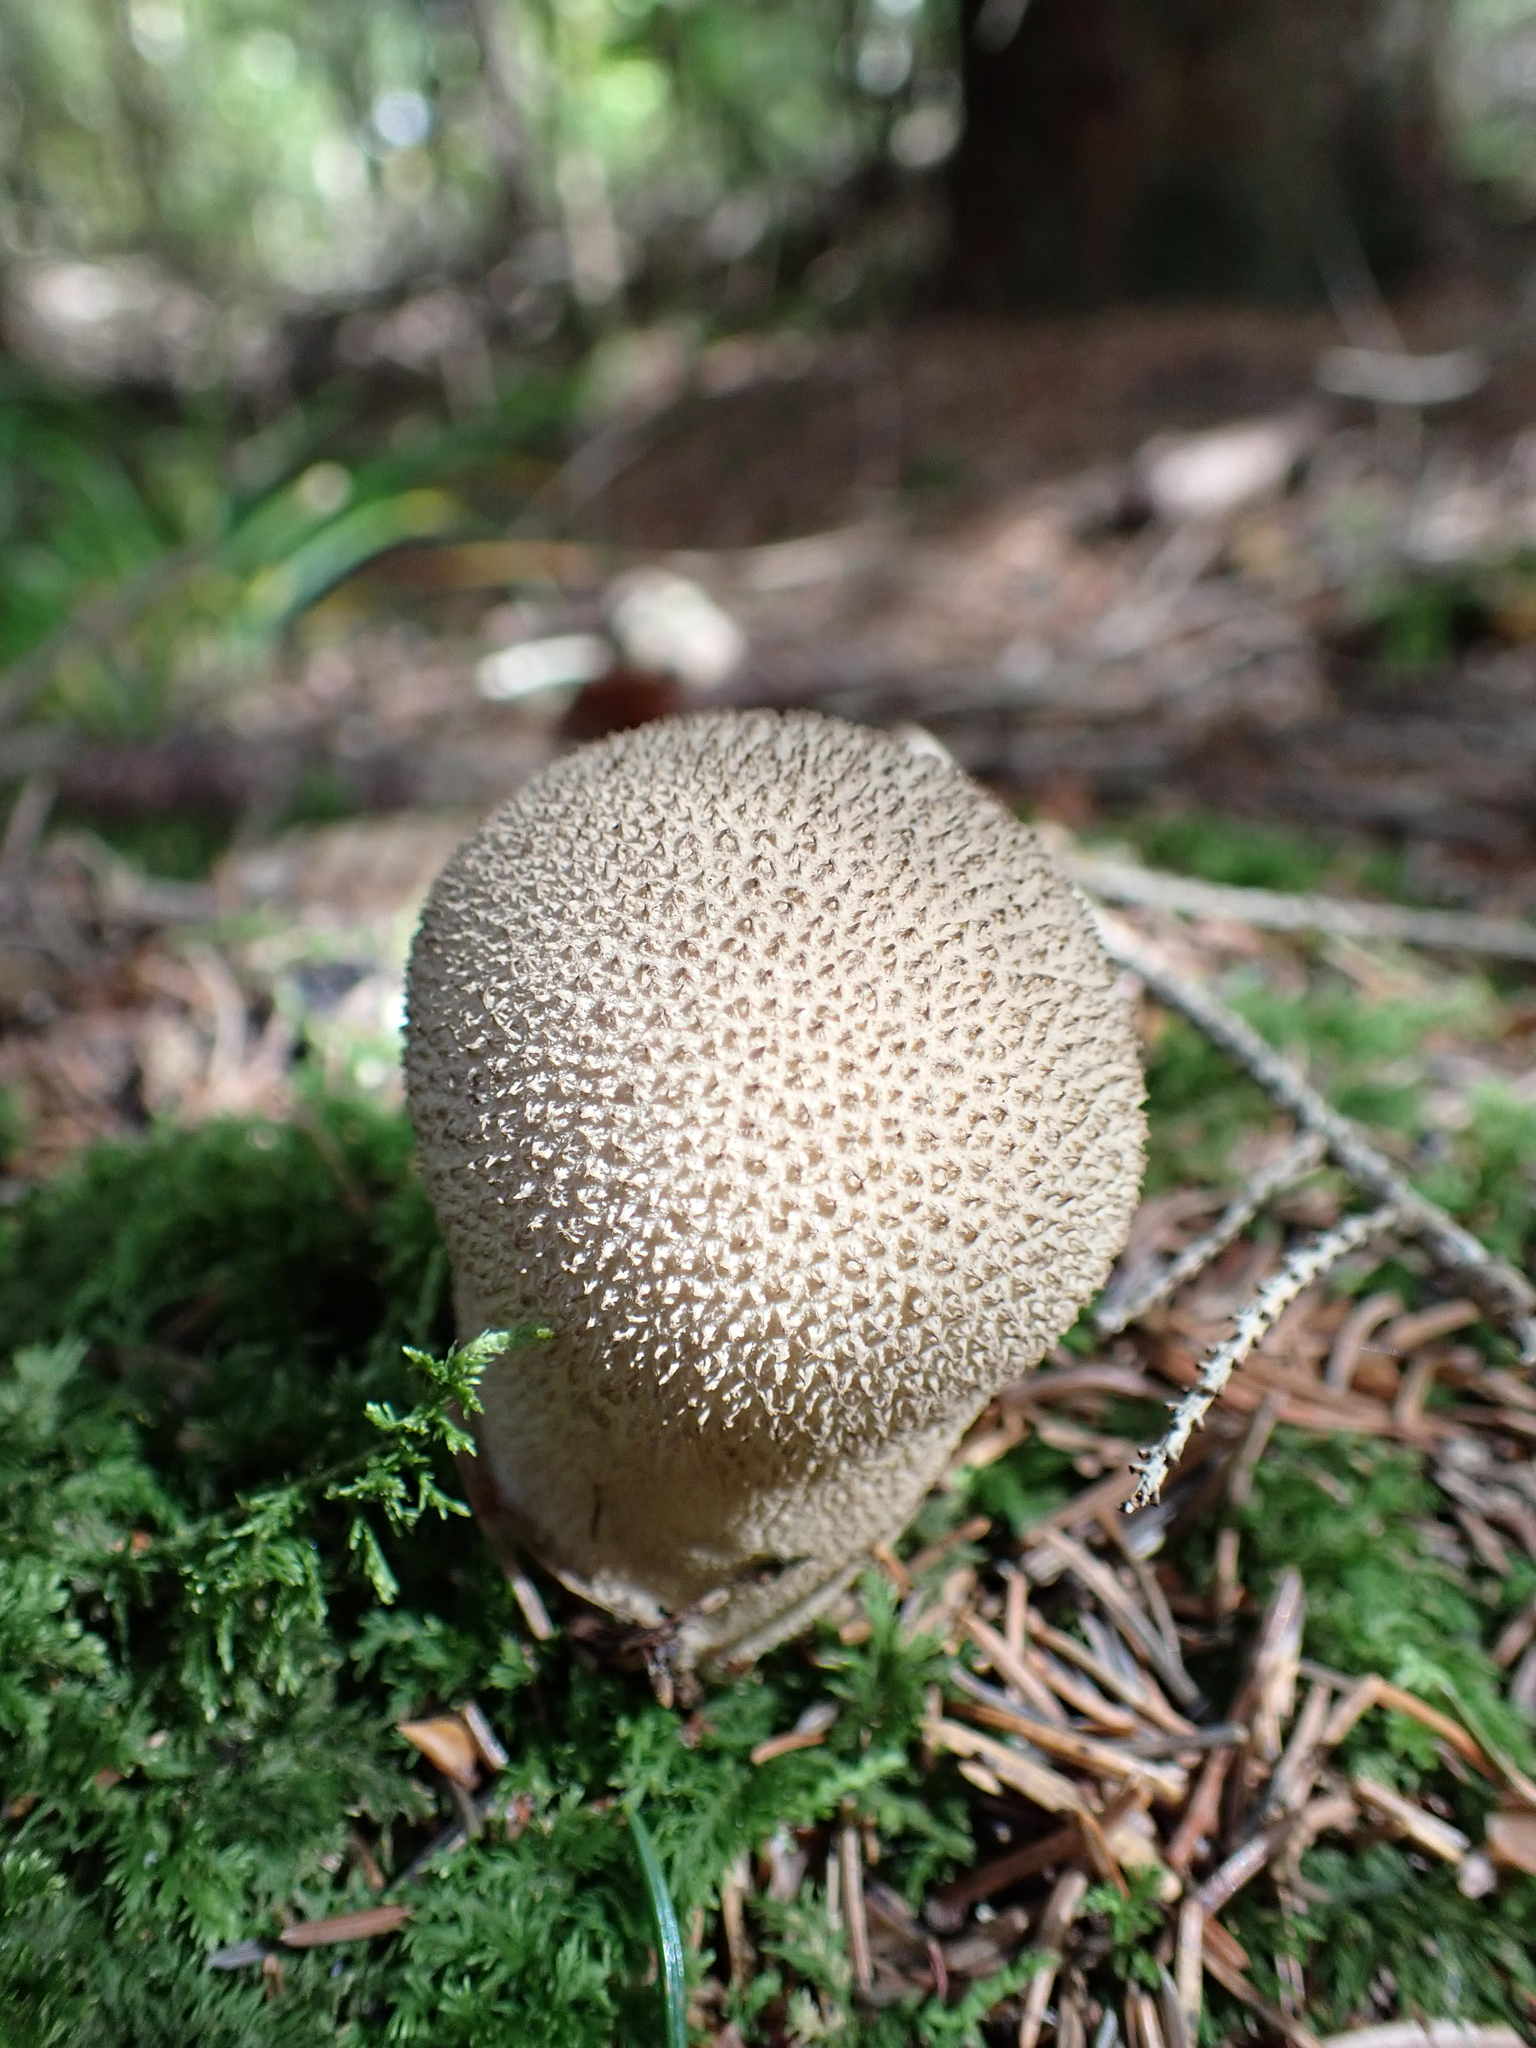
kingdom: Fungi
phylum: Basidiomycota
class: Agaricomycetes
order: Agaricales
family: Lycoperdaceae
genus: Lycoperdon
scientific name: Lycoperdon perlatum
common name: Common puffball
